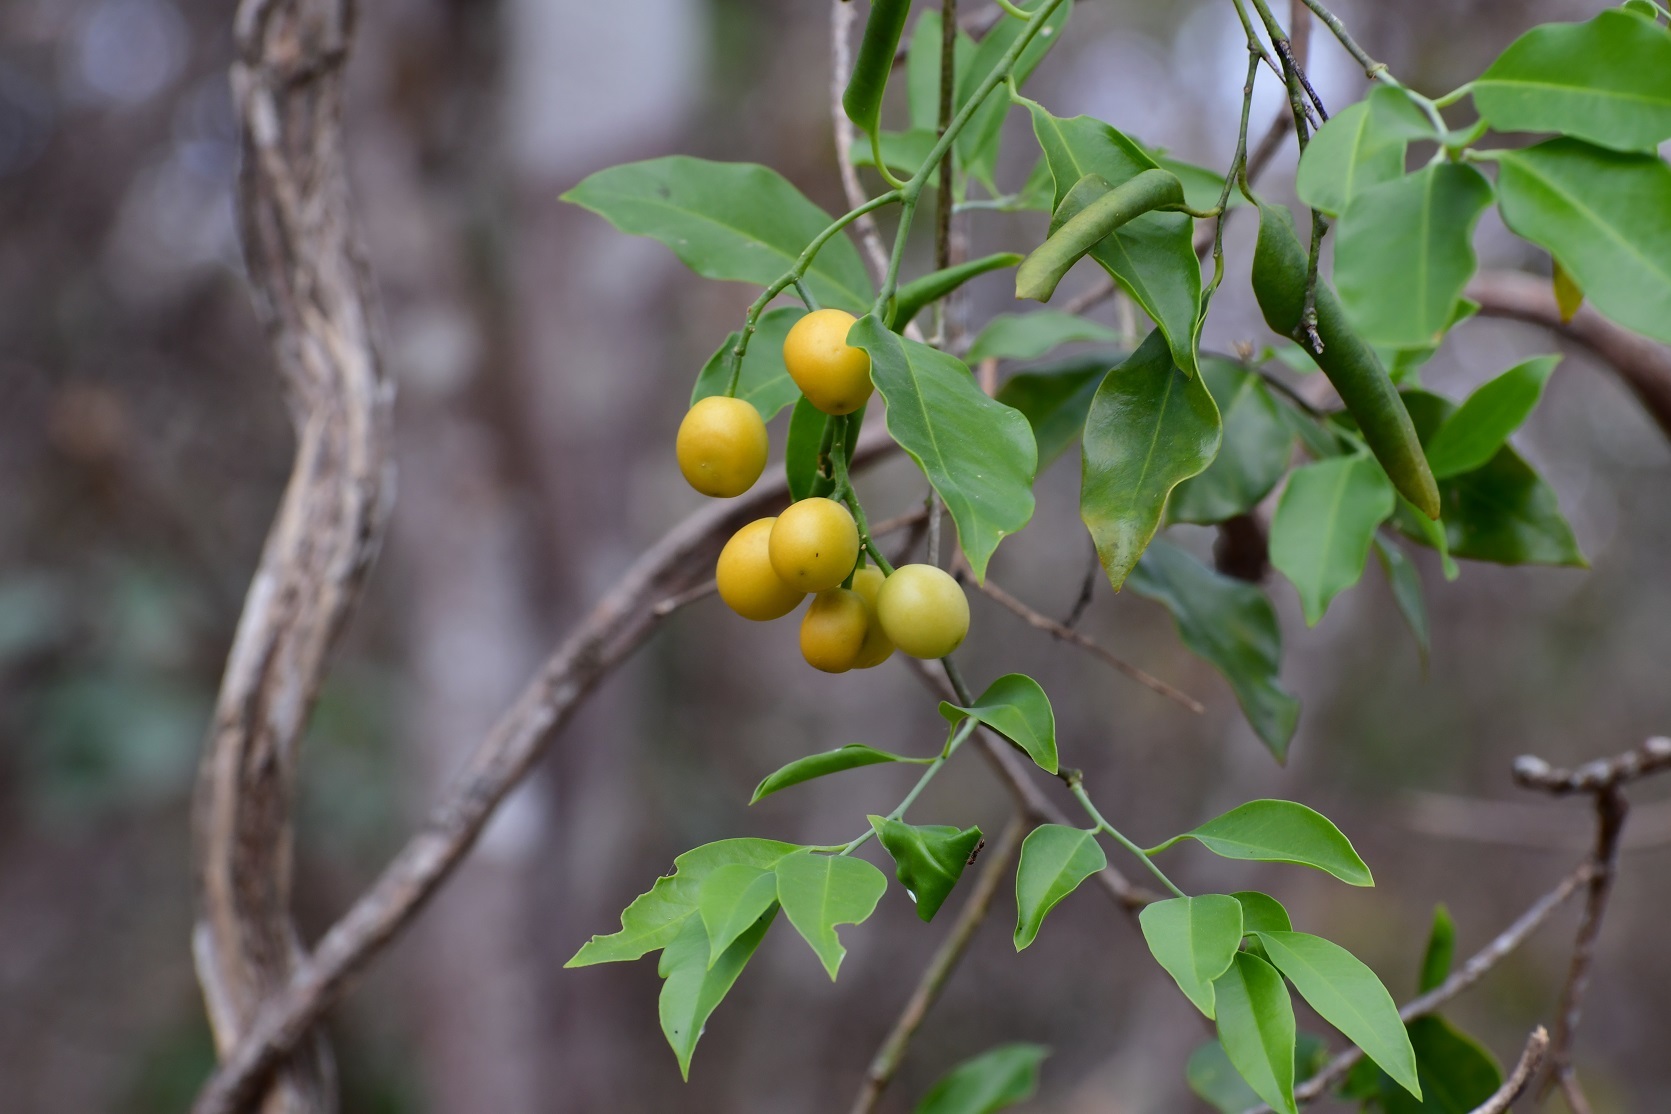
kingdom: Plantae
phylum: Tracheophyta
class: Magnoliopsida
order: Santalales
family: Opiliaceae
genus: Agonandra
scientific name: Agonandra racemosa
